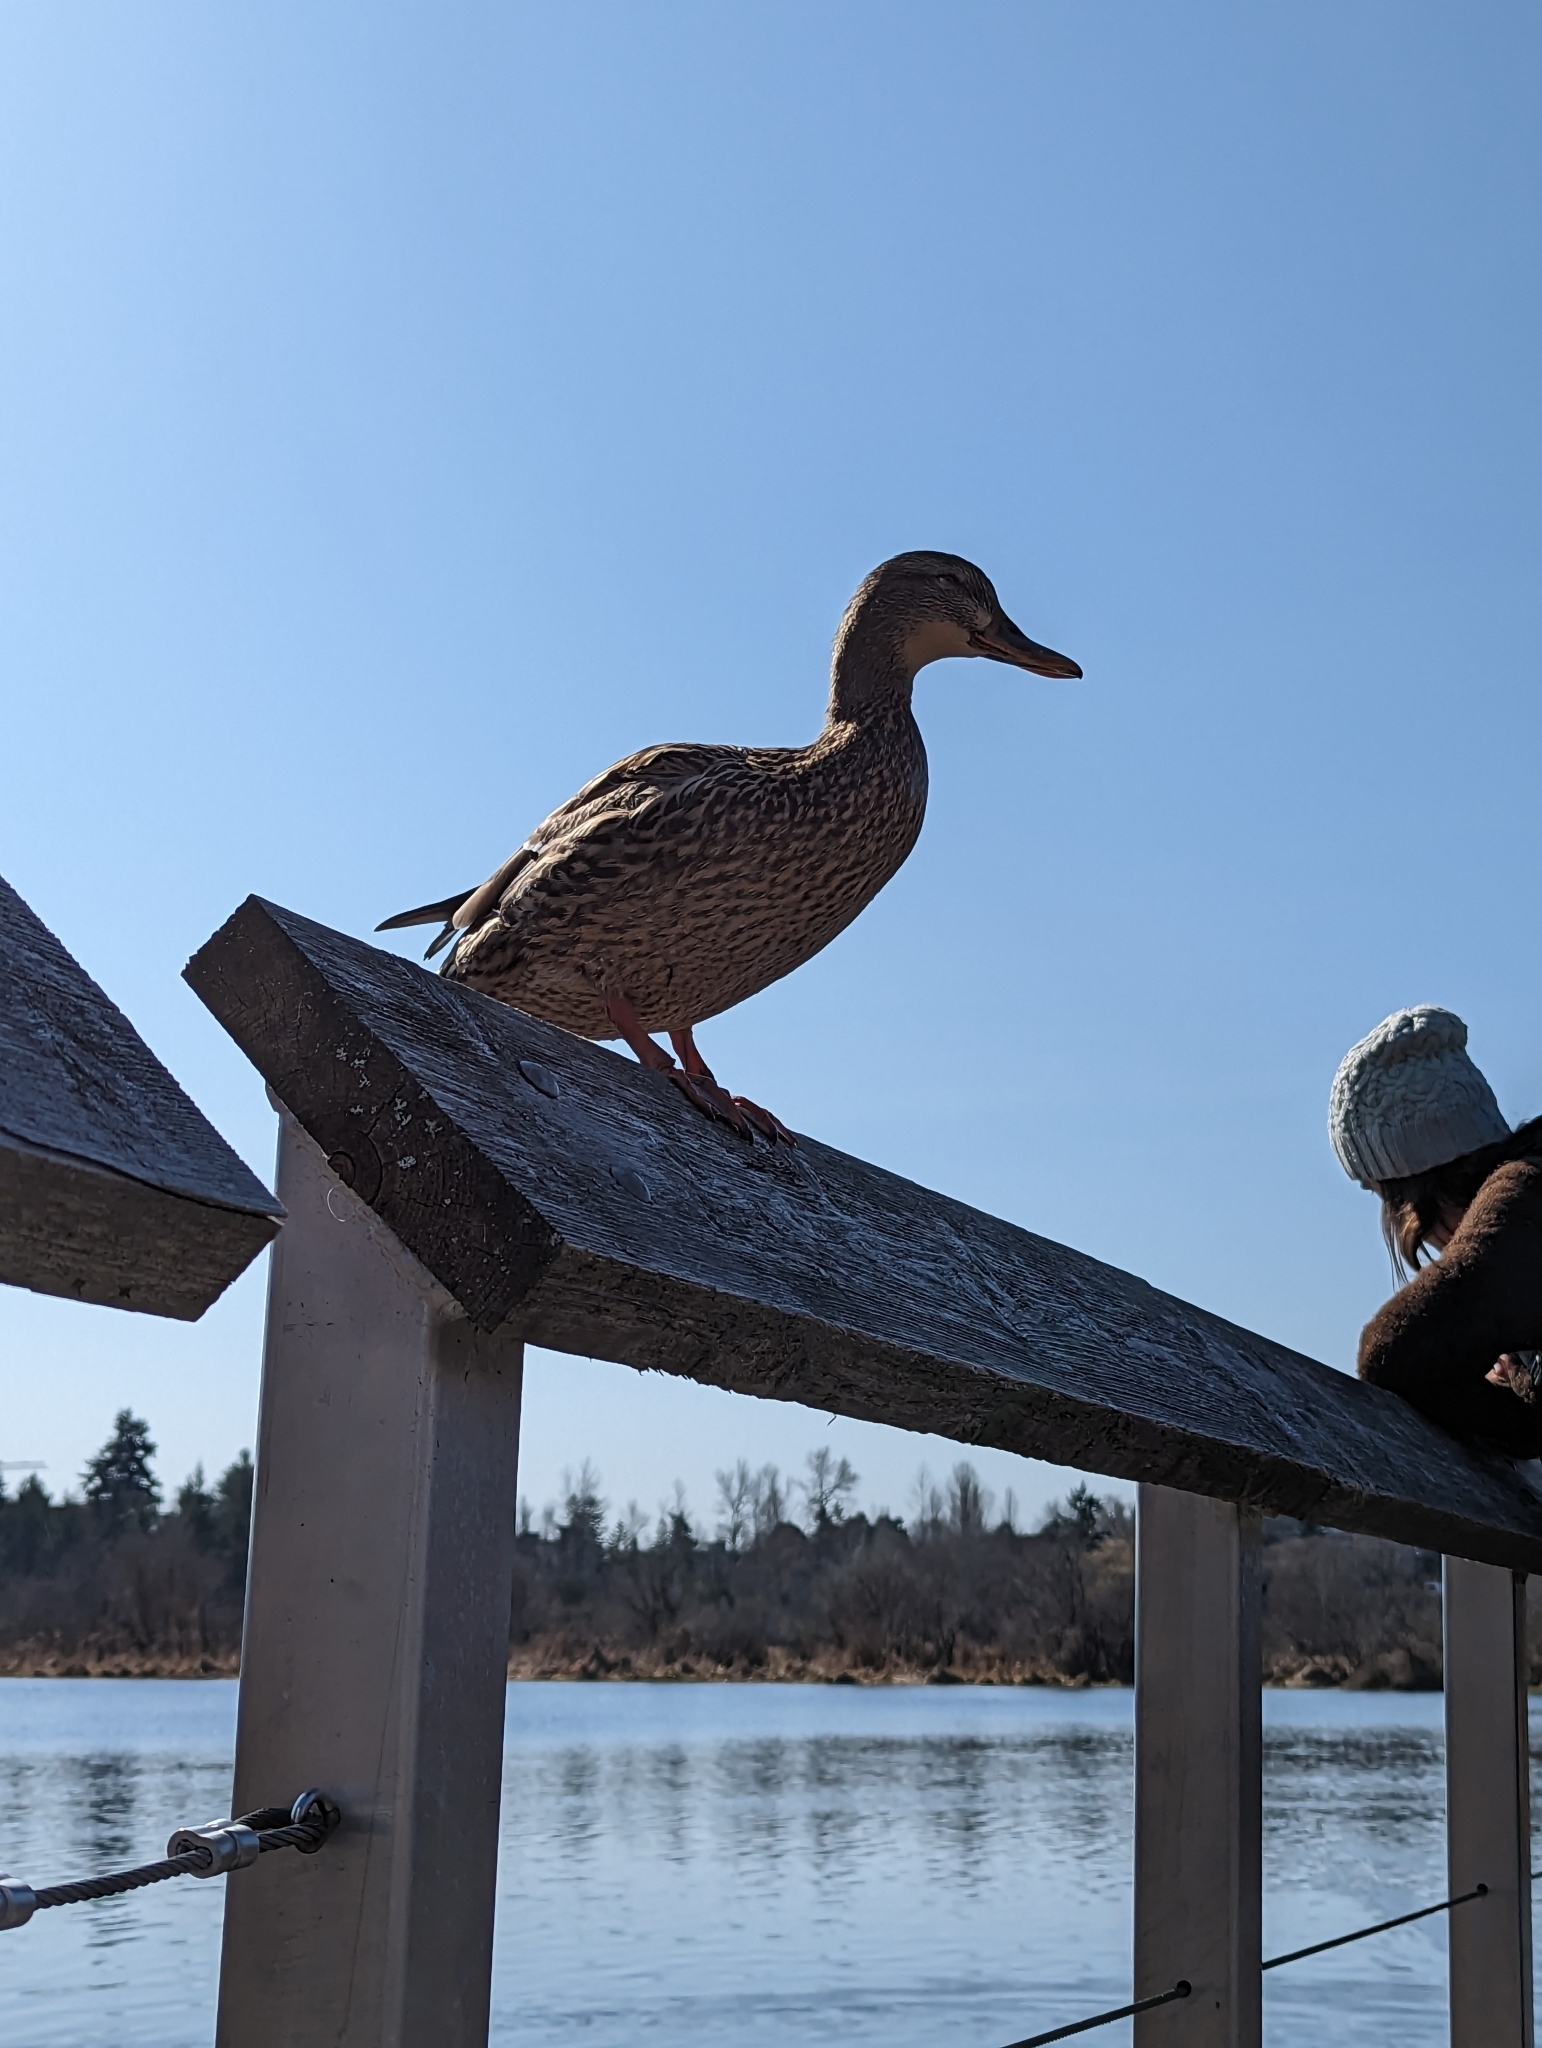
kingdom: Animalia
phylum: Chordata
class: Aves
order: Anseriformes
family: Anatidae
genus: Anas
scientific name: Anas platyrhynchos
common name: Mallard
